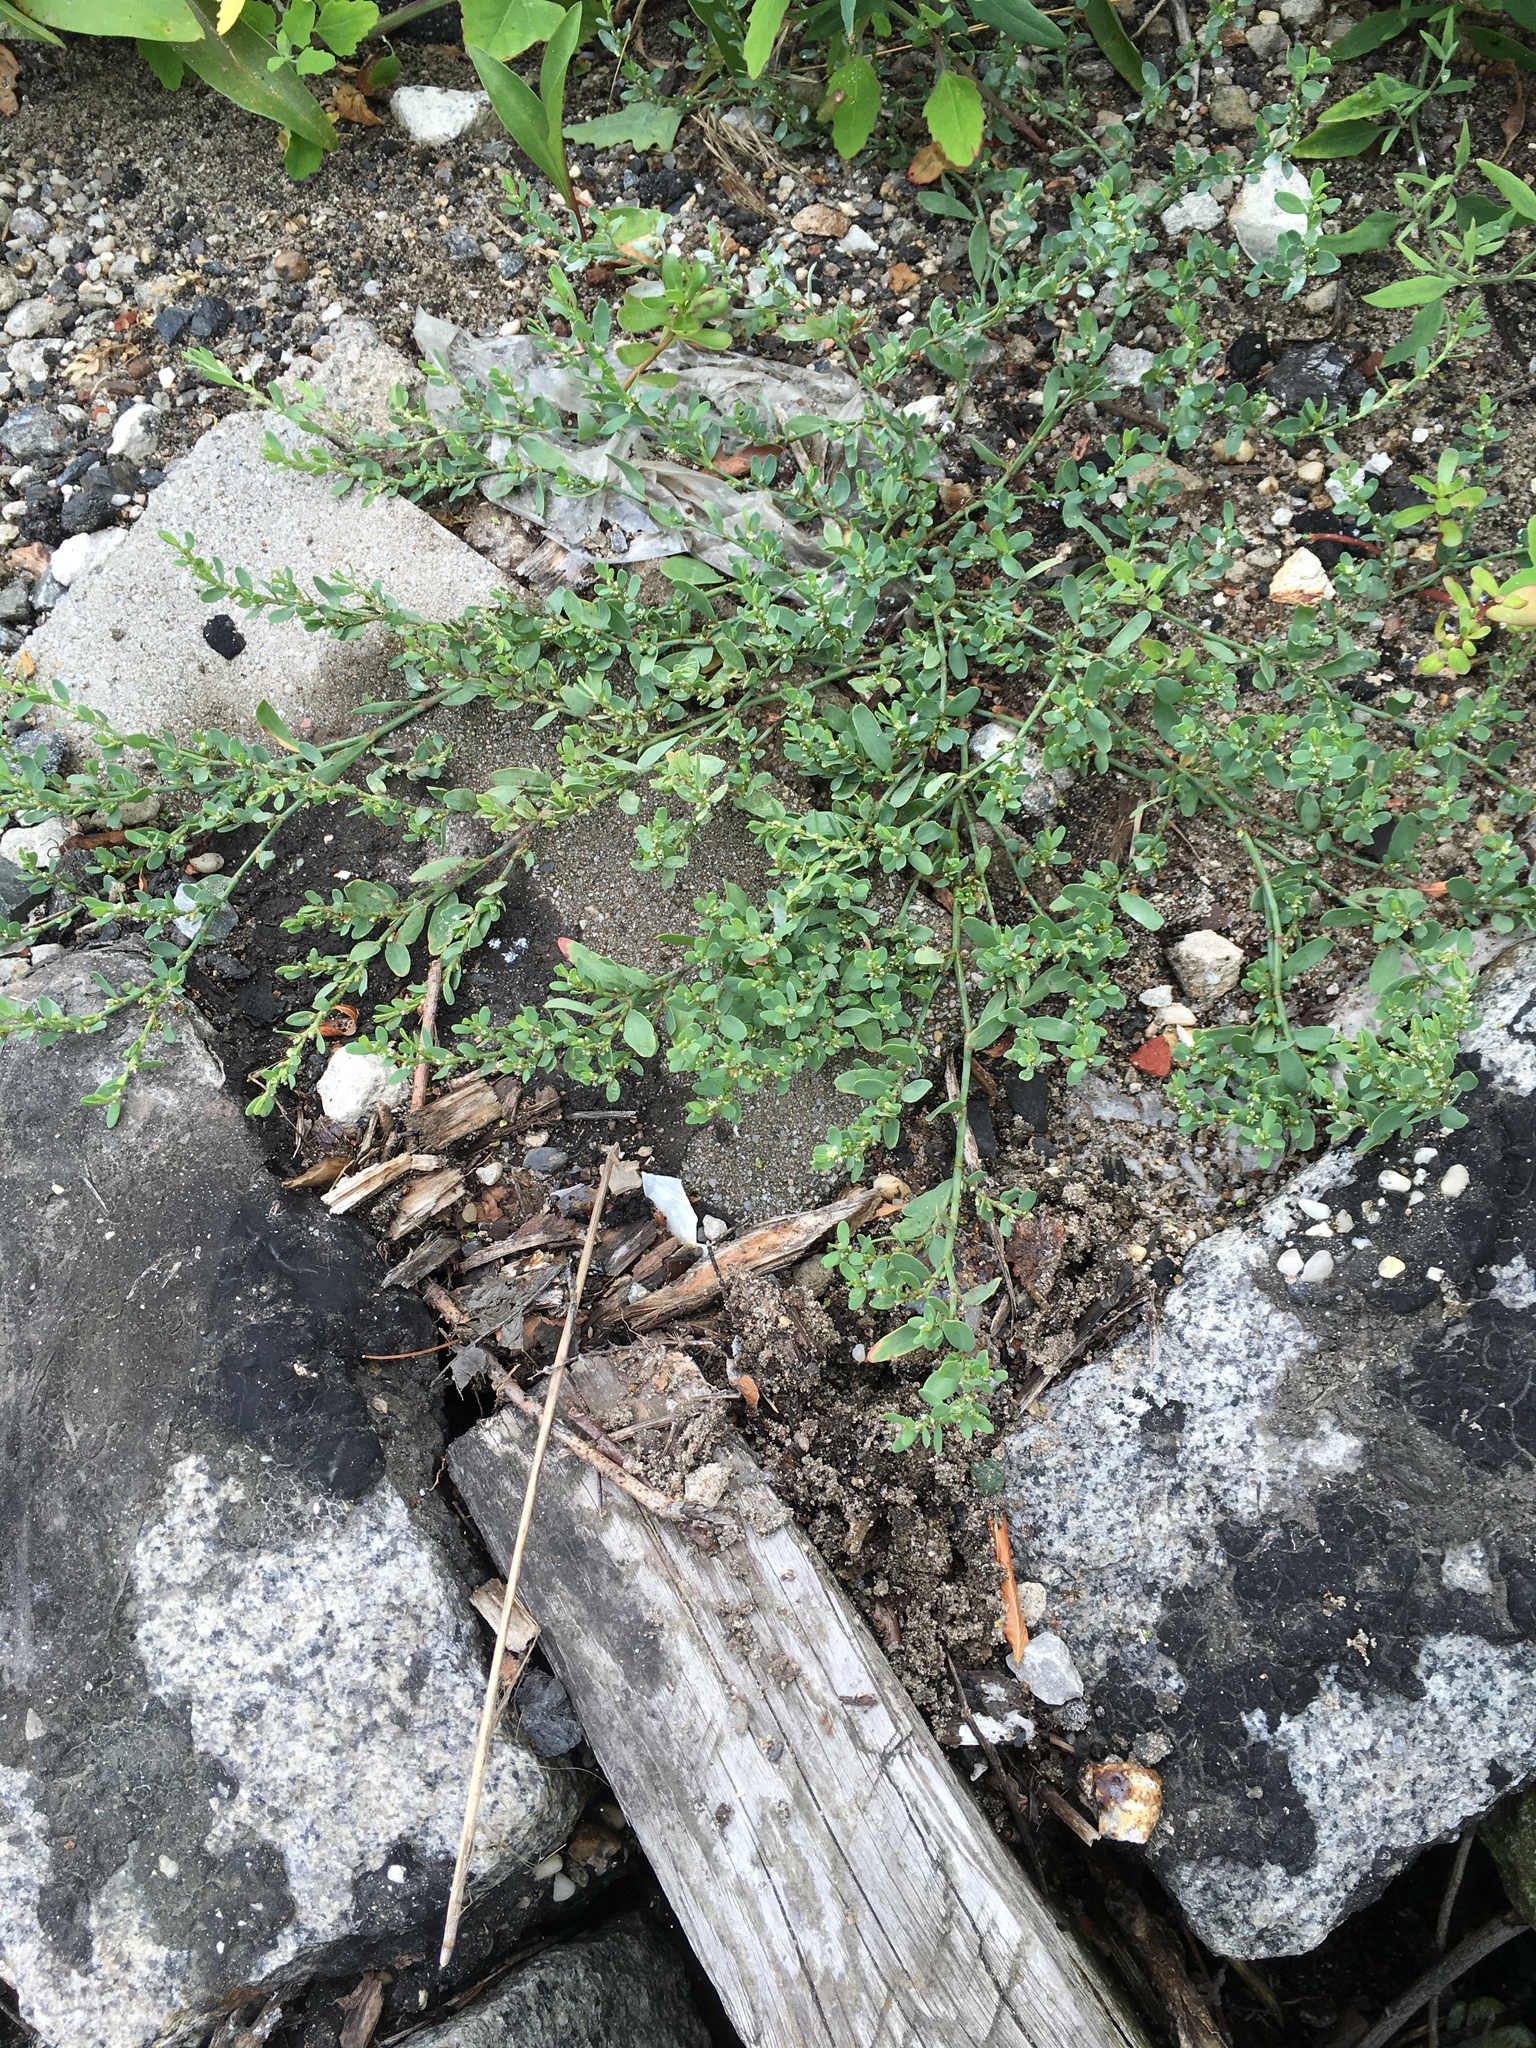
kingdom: Plantae
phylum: Tracheophyta
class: Magnoliopsida
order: Caryophyllales
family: Polygonaceae
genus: Polygonum
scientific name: Polygonum aviculare
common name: Prostrate knotweed
